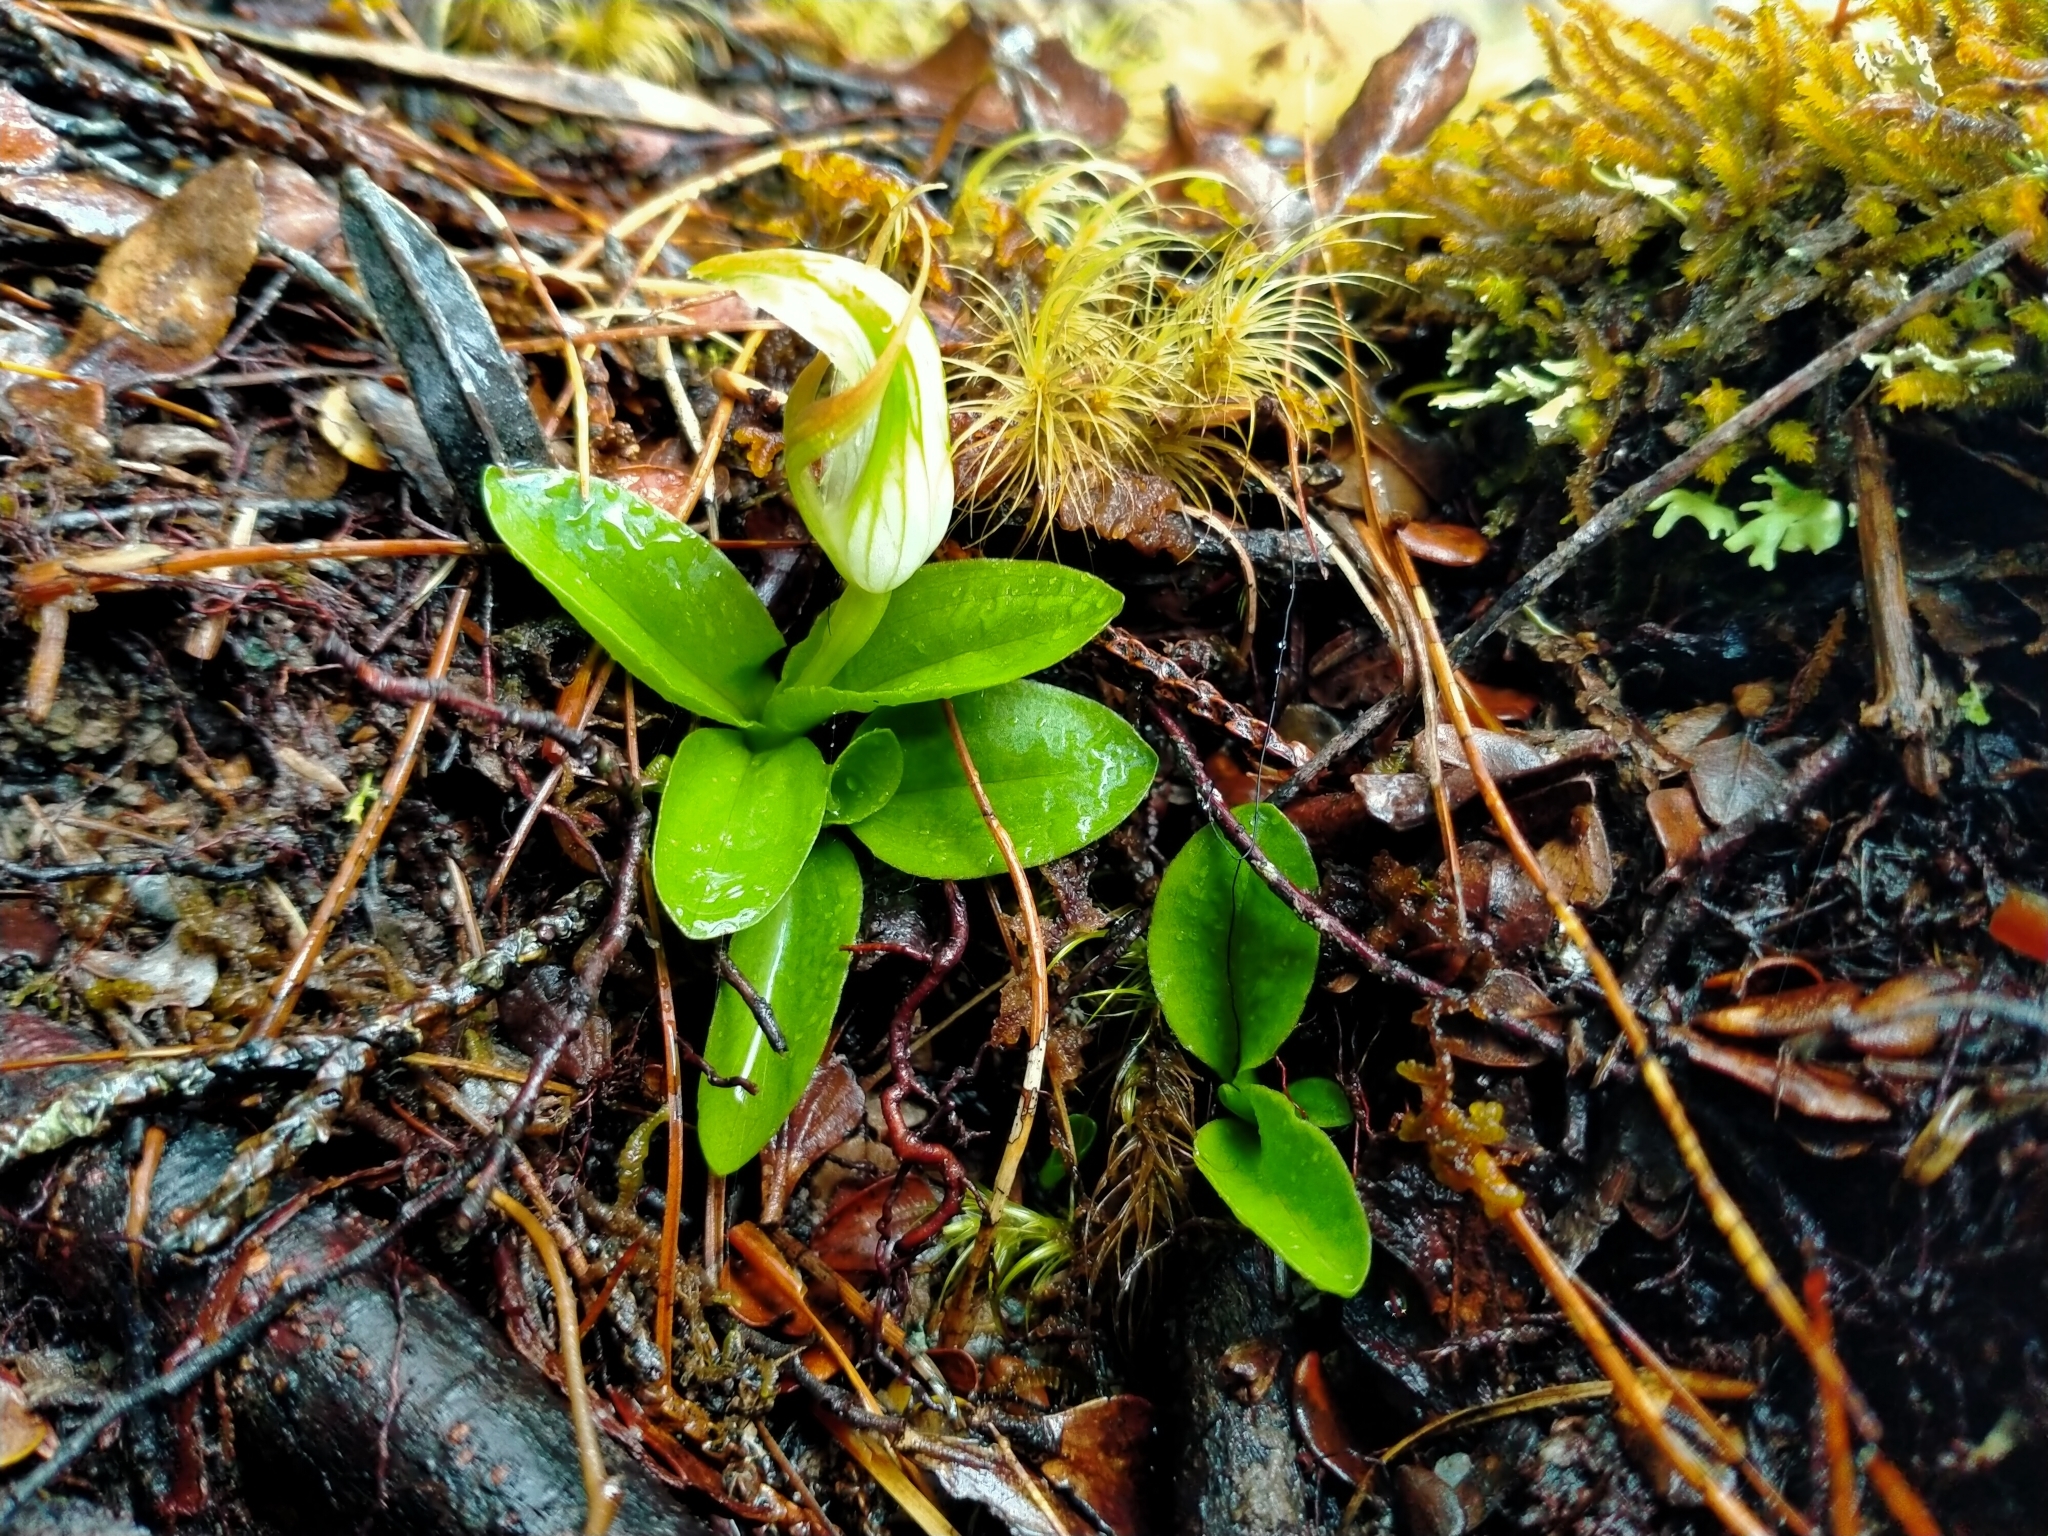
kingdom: Plantae
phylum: Tracheophyta
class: Liliopsida
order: Asparagales
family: Orchidaceae
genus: Pterostylis
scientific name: Pterostylis venosa
